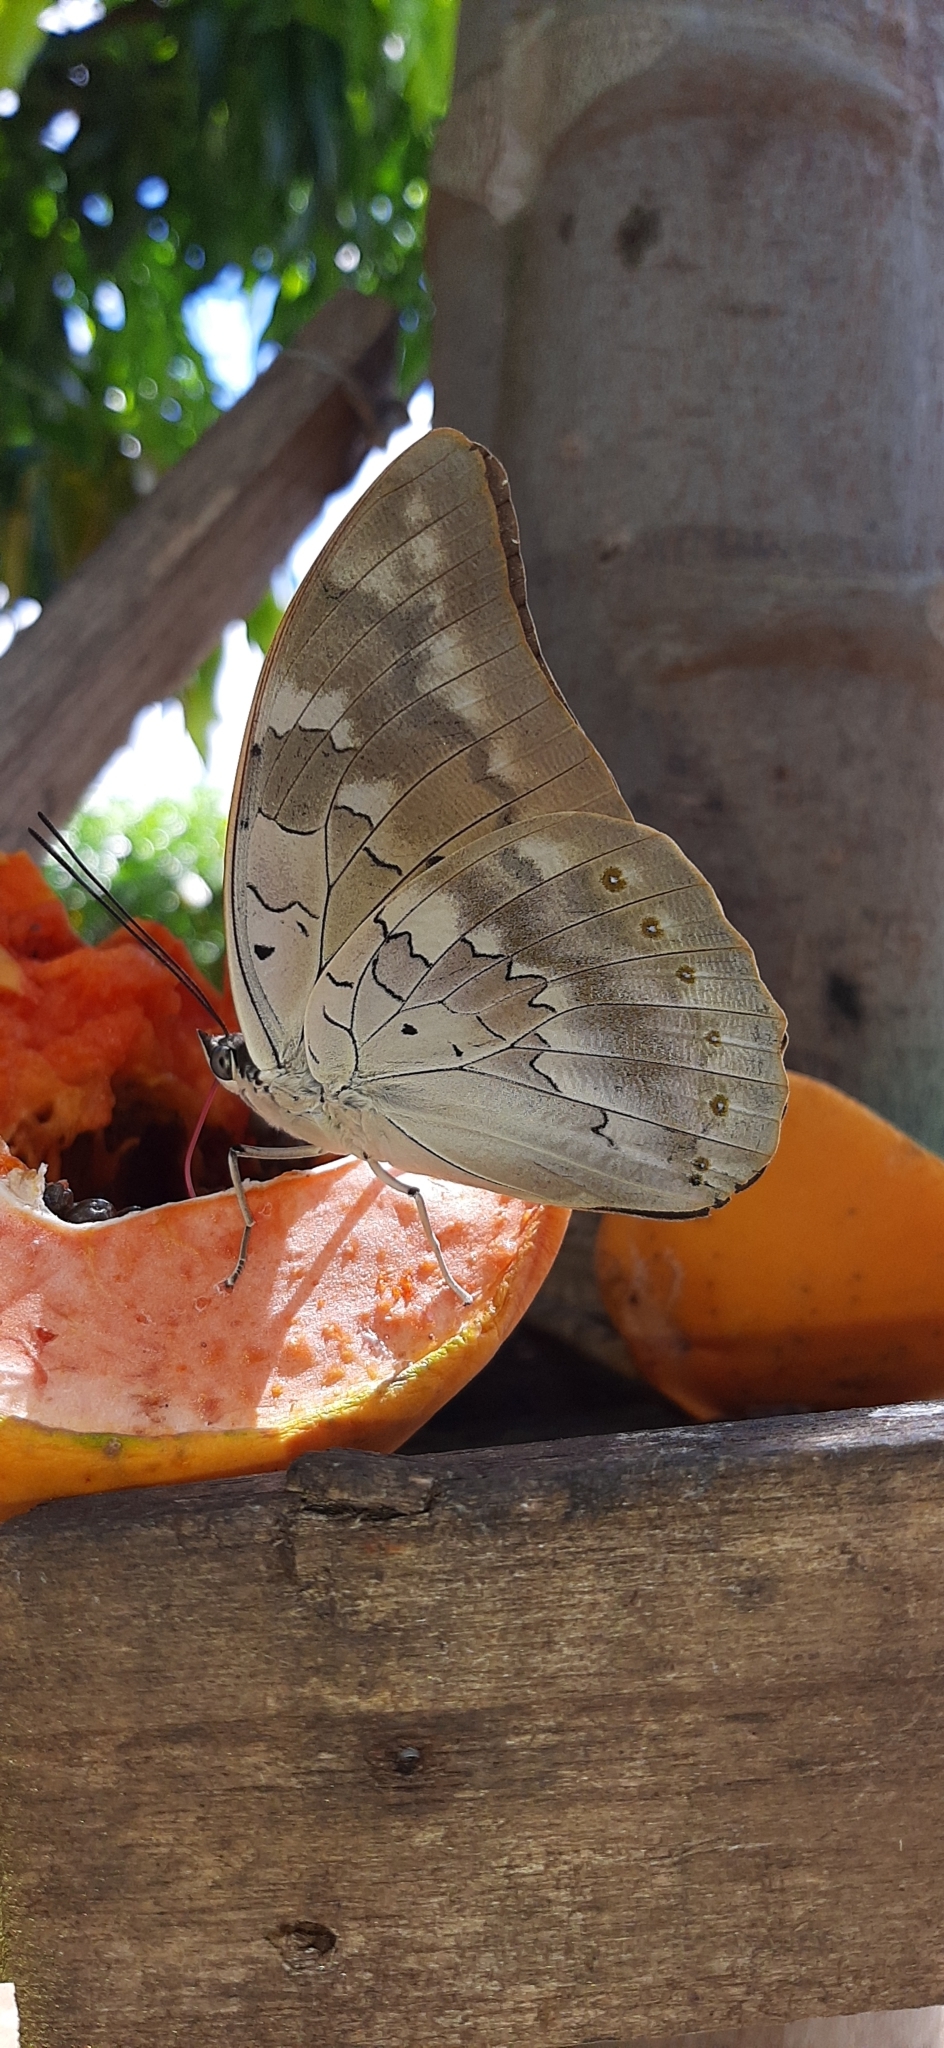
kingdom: Animalia
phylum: Arthropoda
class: Insecta
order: Lepidoptera
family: Nymphalidae
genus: Prepona
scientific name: Prepona demophon
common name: One-spotted prepona
